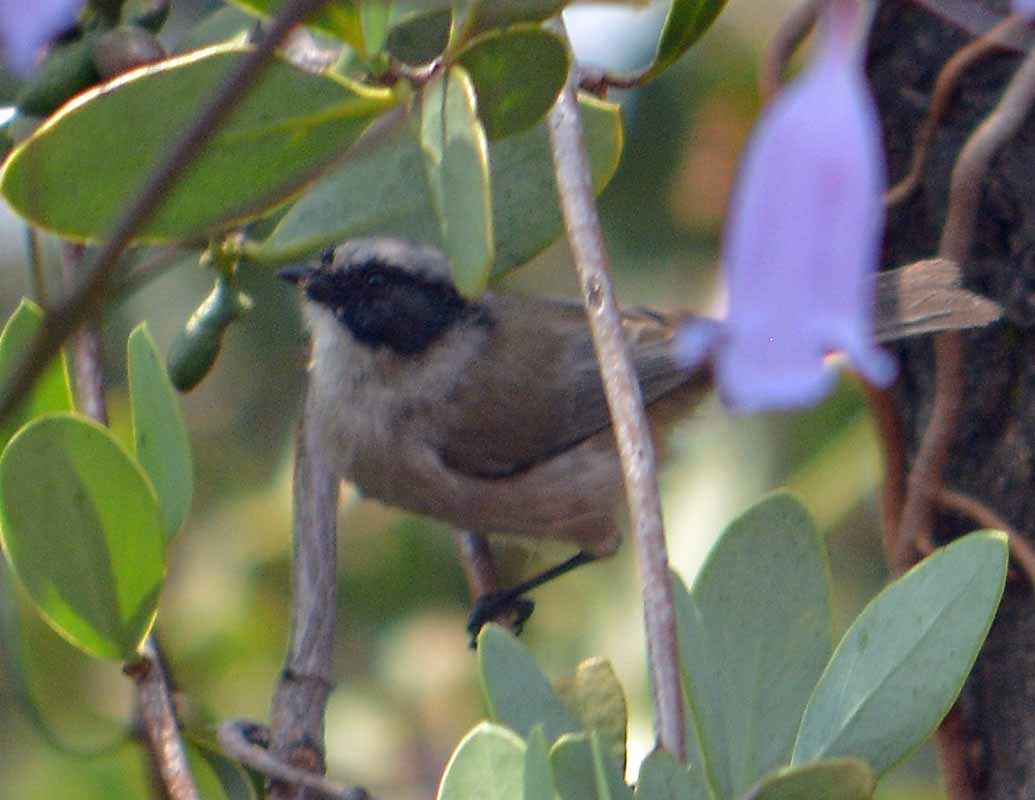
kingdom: Animalia
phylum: Chordata
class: Aves
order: Passeriformes
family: Aegithalidae
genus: Psaltriparus
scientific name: Psaltriparus minimus
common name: American bushtit
